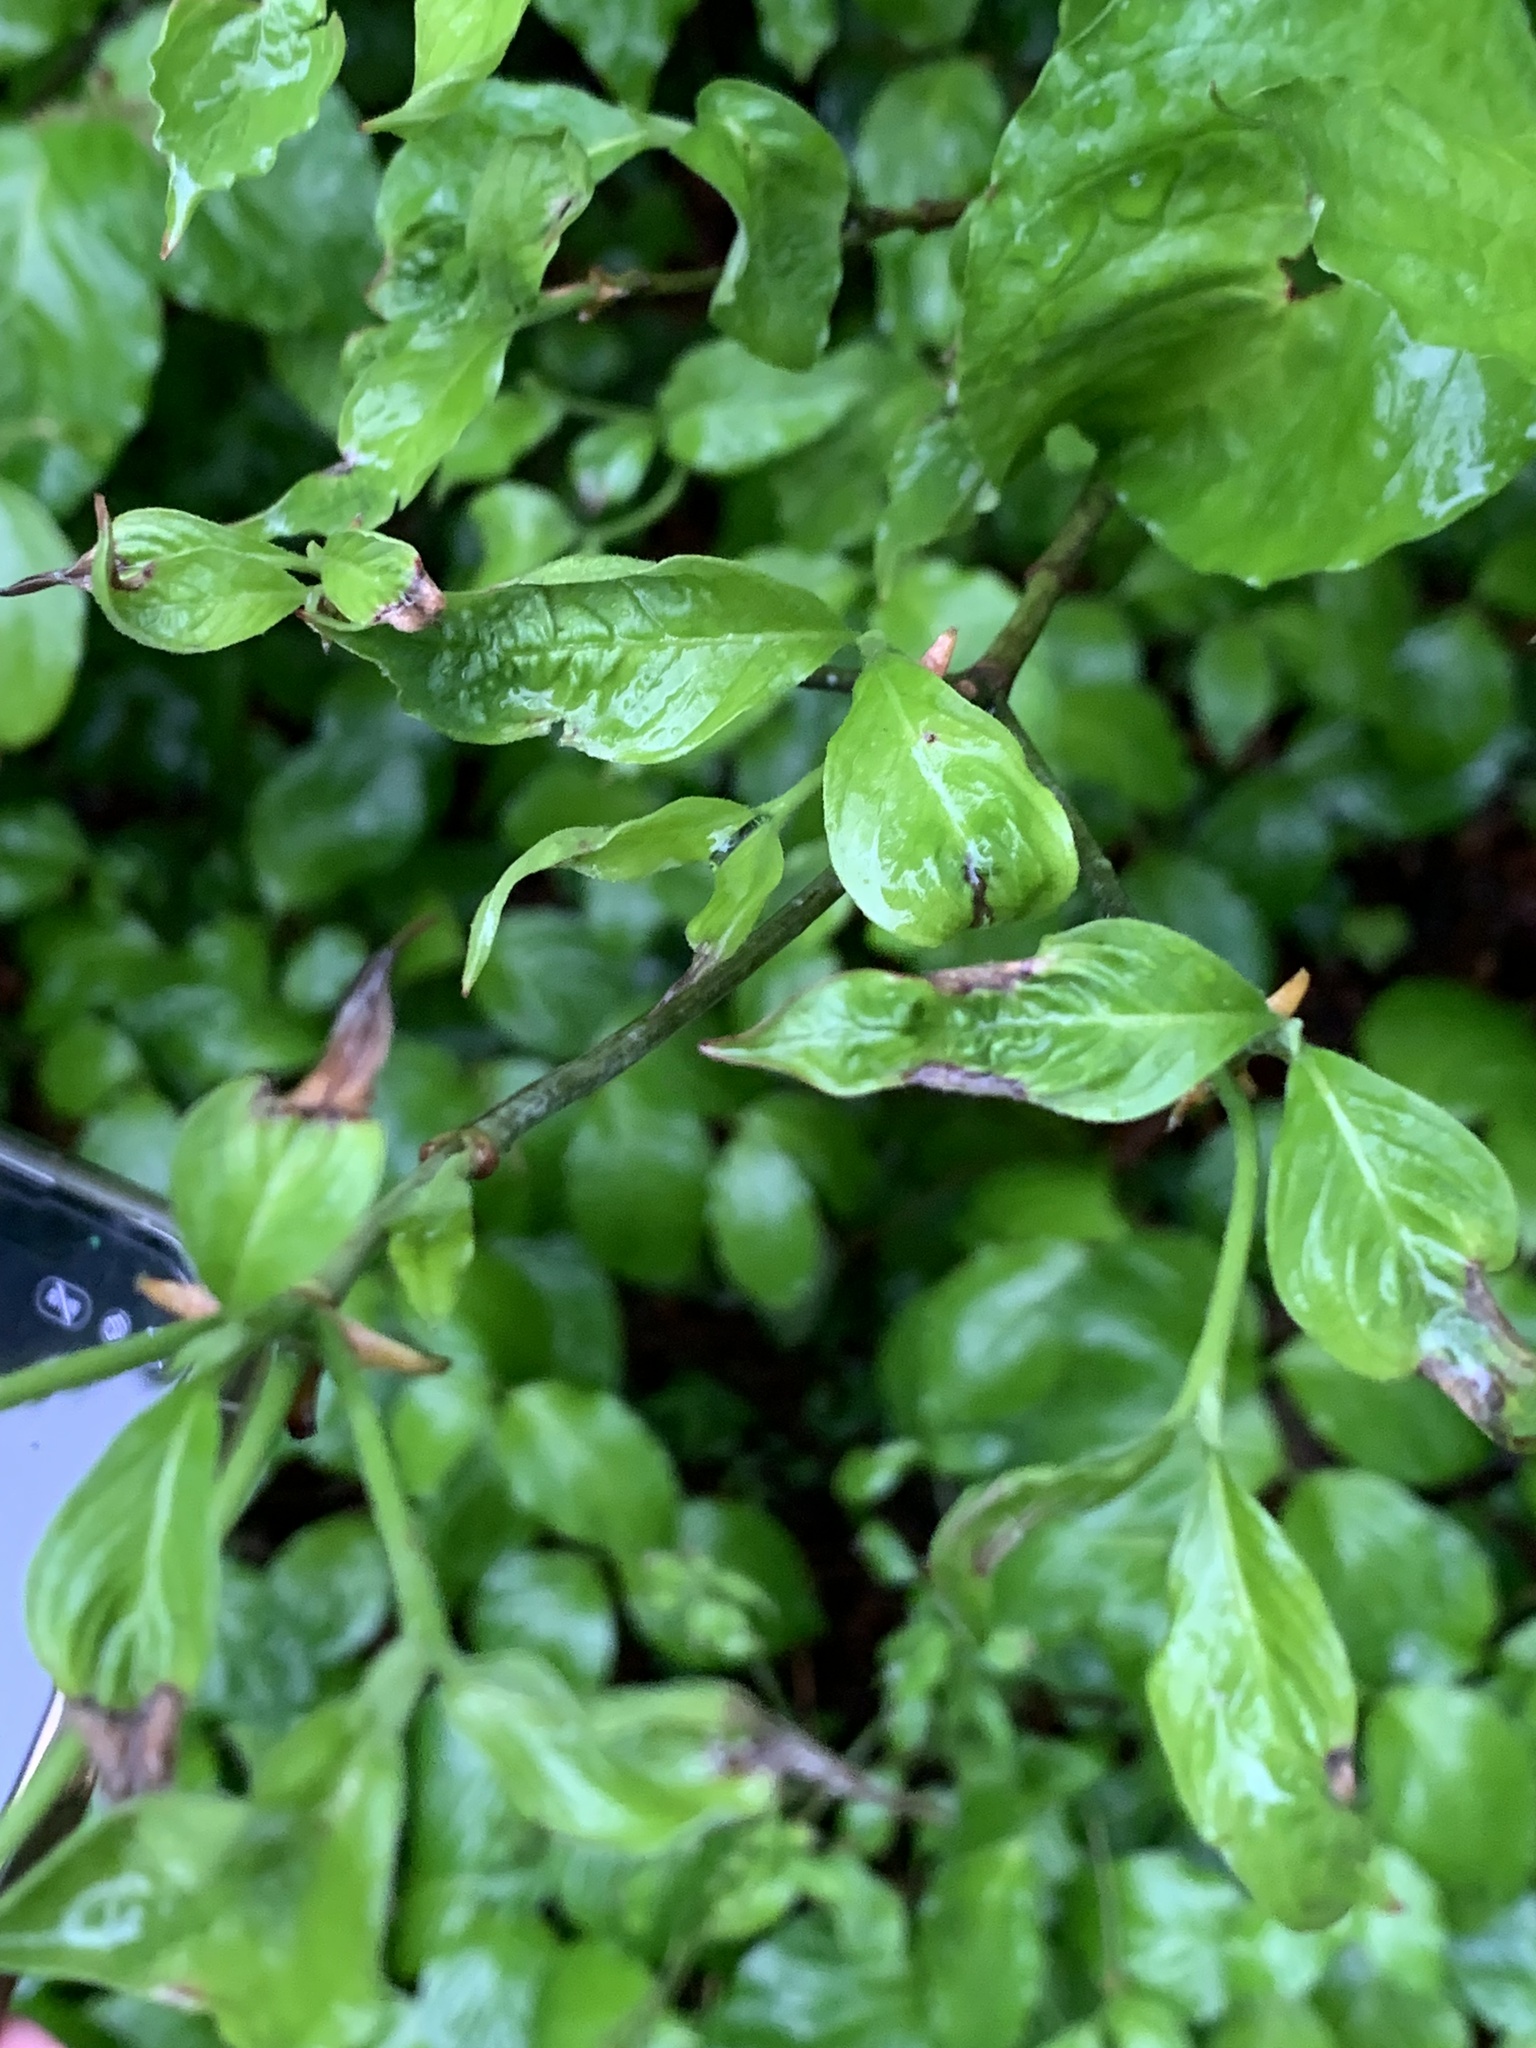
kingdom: Plantae
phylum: Tracheophyta
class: Magnoliopsida
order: Cornales
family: Cornaceae
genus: Cornus
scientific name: Cornus florida
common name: Flowering dogwood
